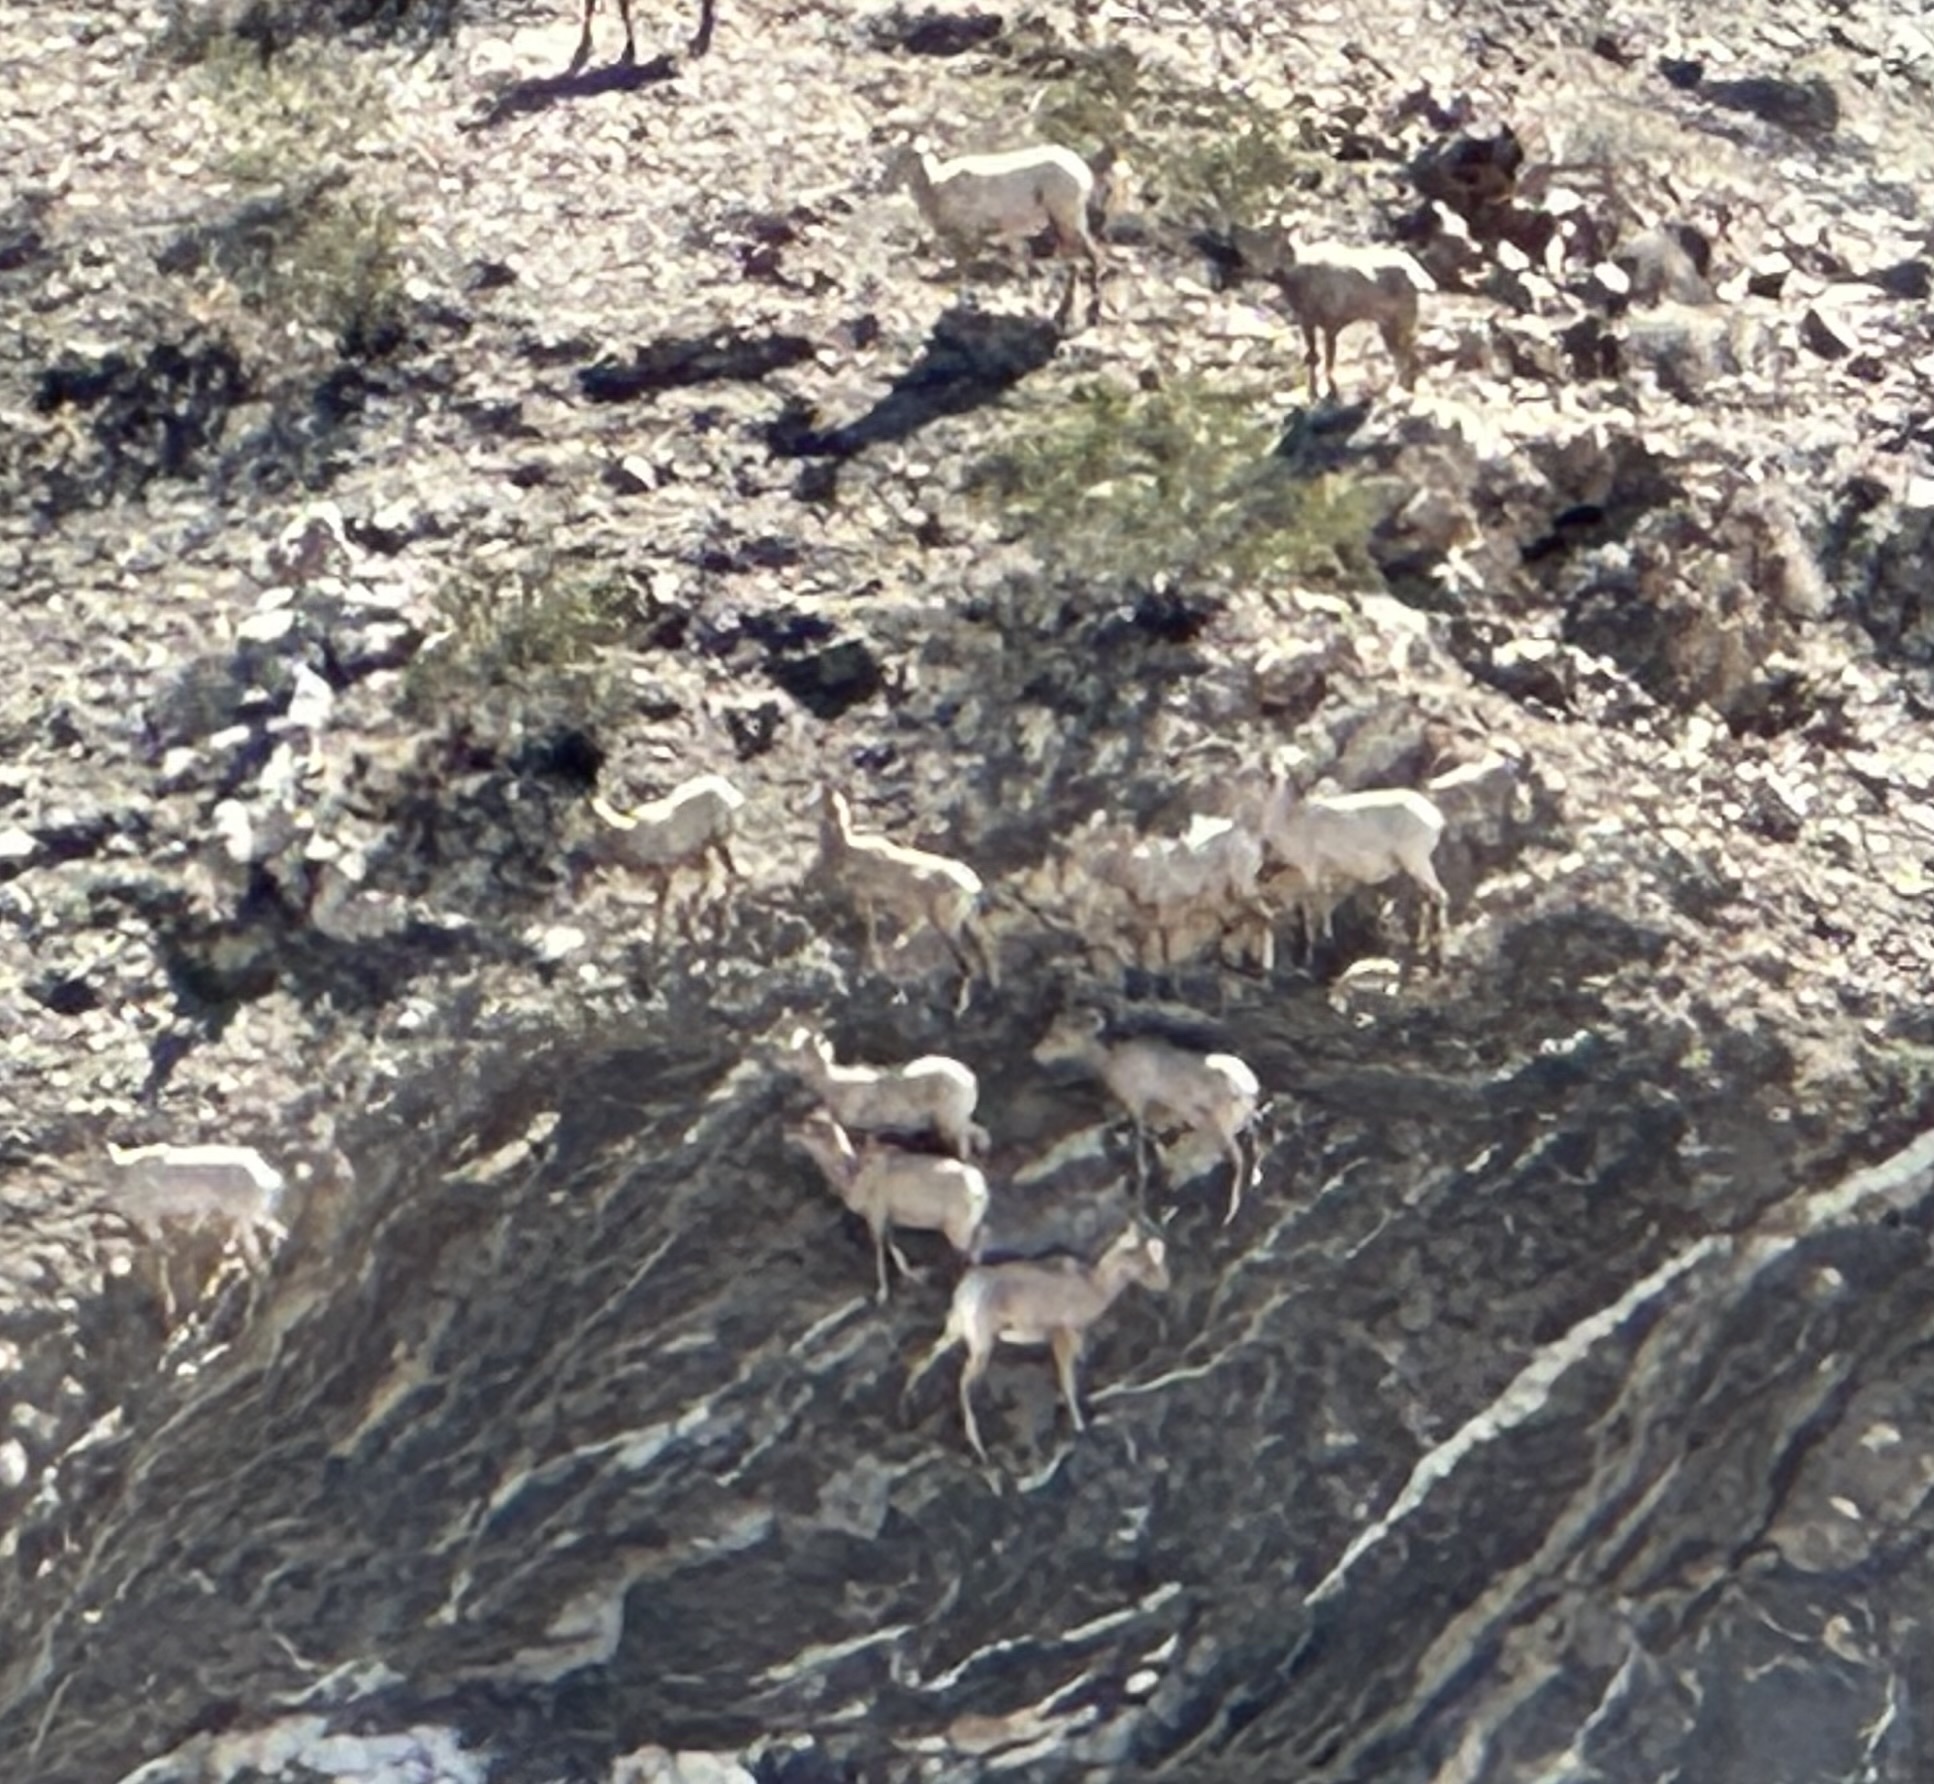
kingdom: Animalia
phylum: Chordata
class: Mammalia
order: Artiodactyla
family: Bovidae
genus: Ovis
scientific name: Ovis canadensis
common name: Bighorn sheep
